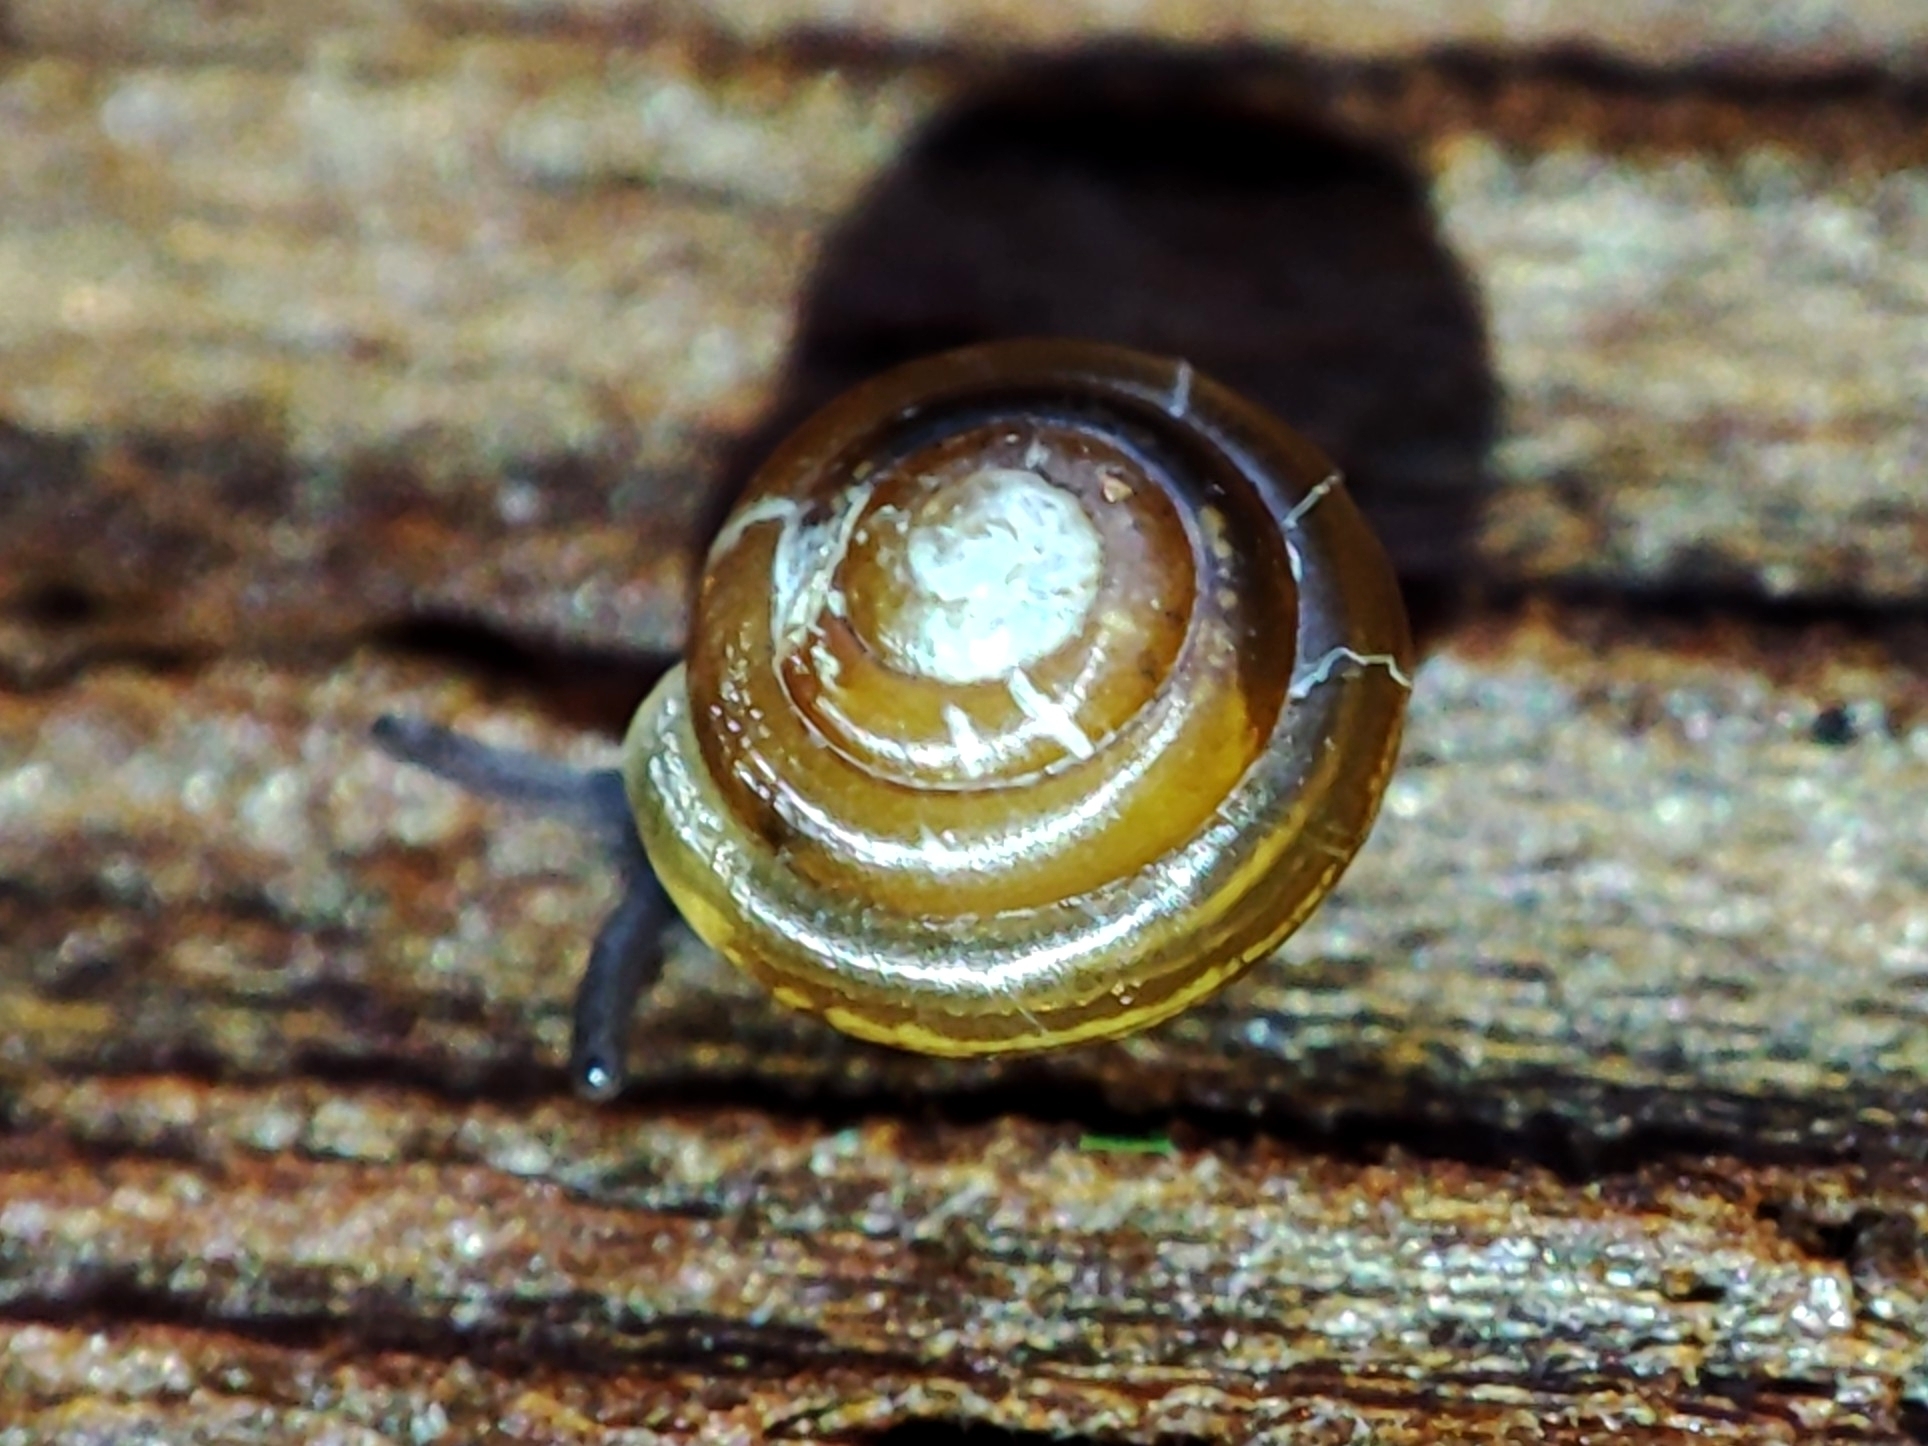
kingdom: Animalia
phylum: Mollusca
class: Gastropoda
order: Stylommatophora
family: Euconulidae
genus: Euconulus
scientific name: Euconulus fulvus
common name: Tawny glass snail
